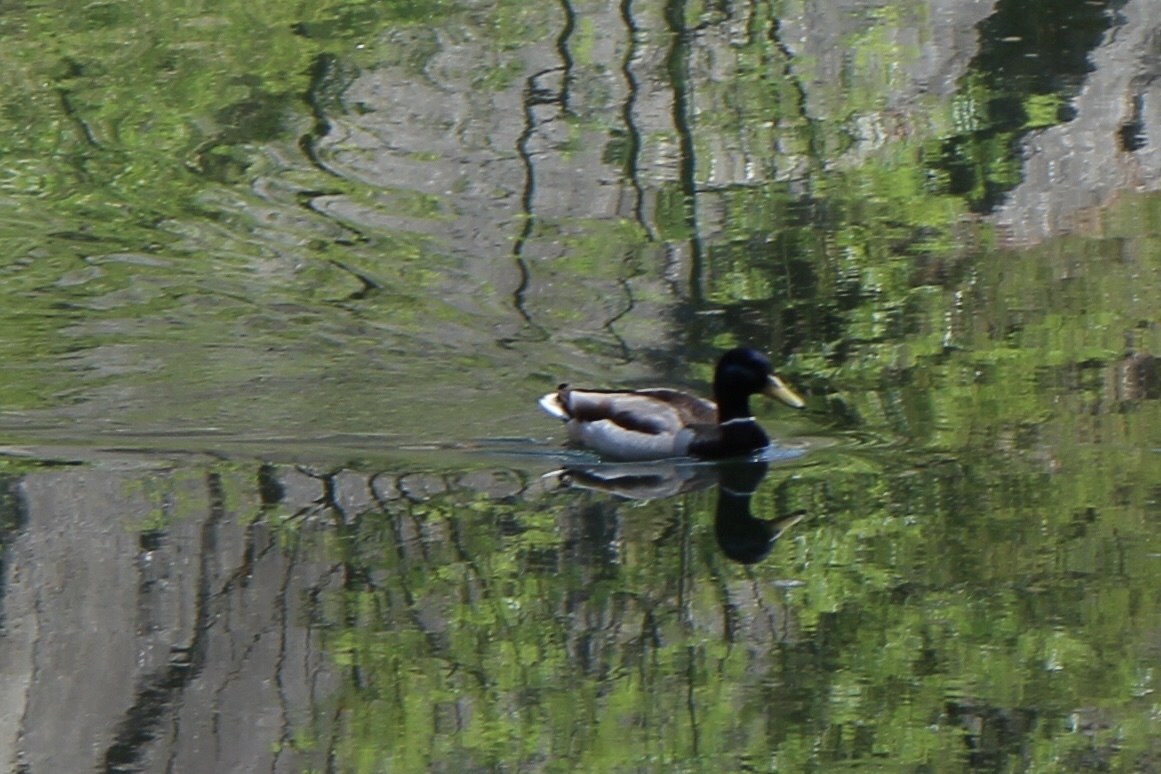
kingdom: Animalia
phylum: Chordata
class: Aves
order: Anseriformes
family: Anatidae
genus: Anas
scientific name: Anas platyrhynchos
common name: Mallard
